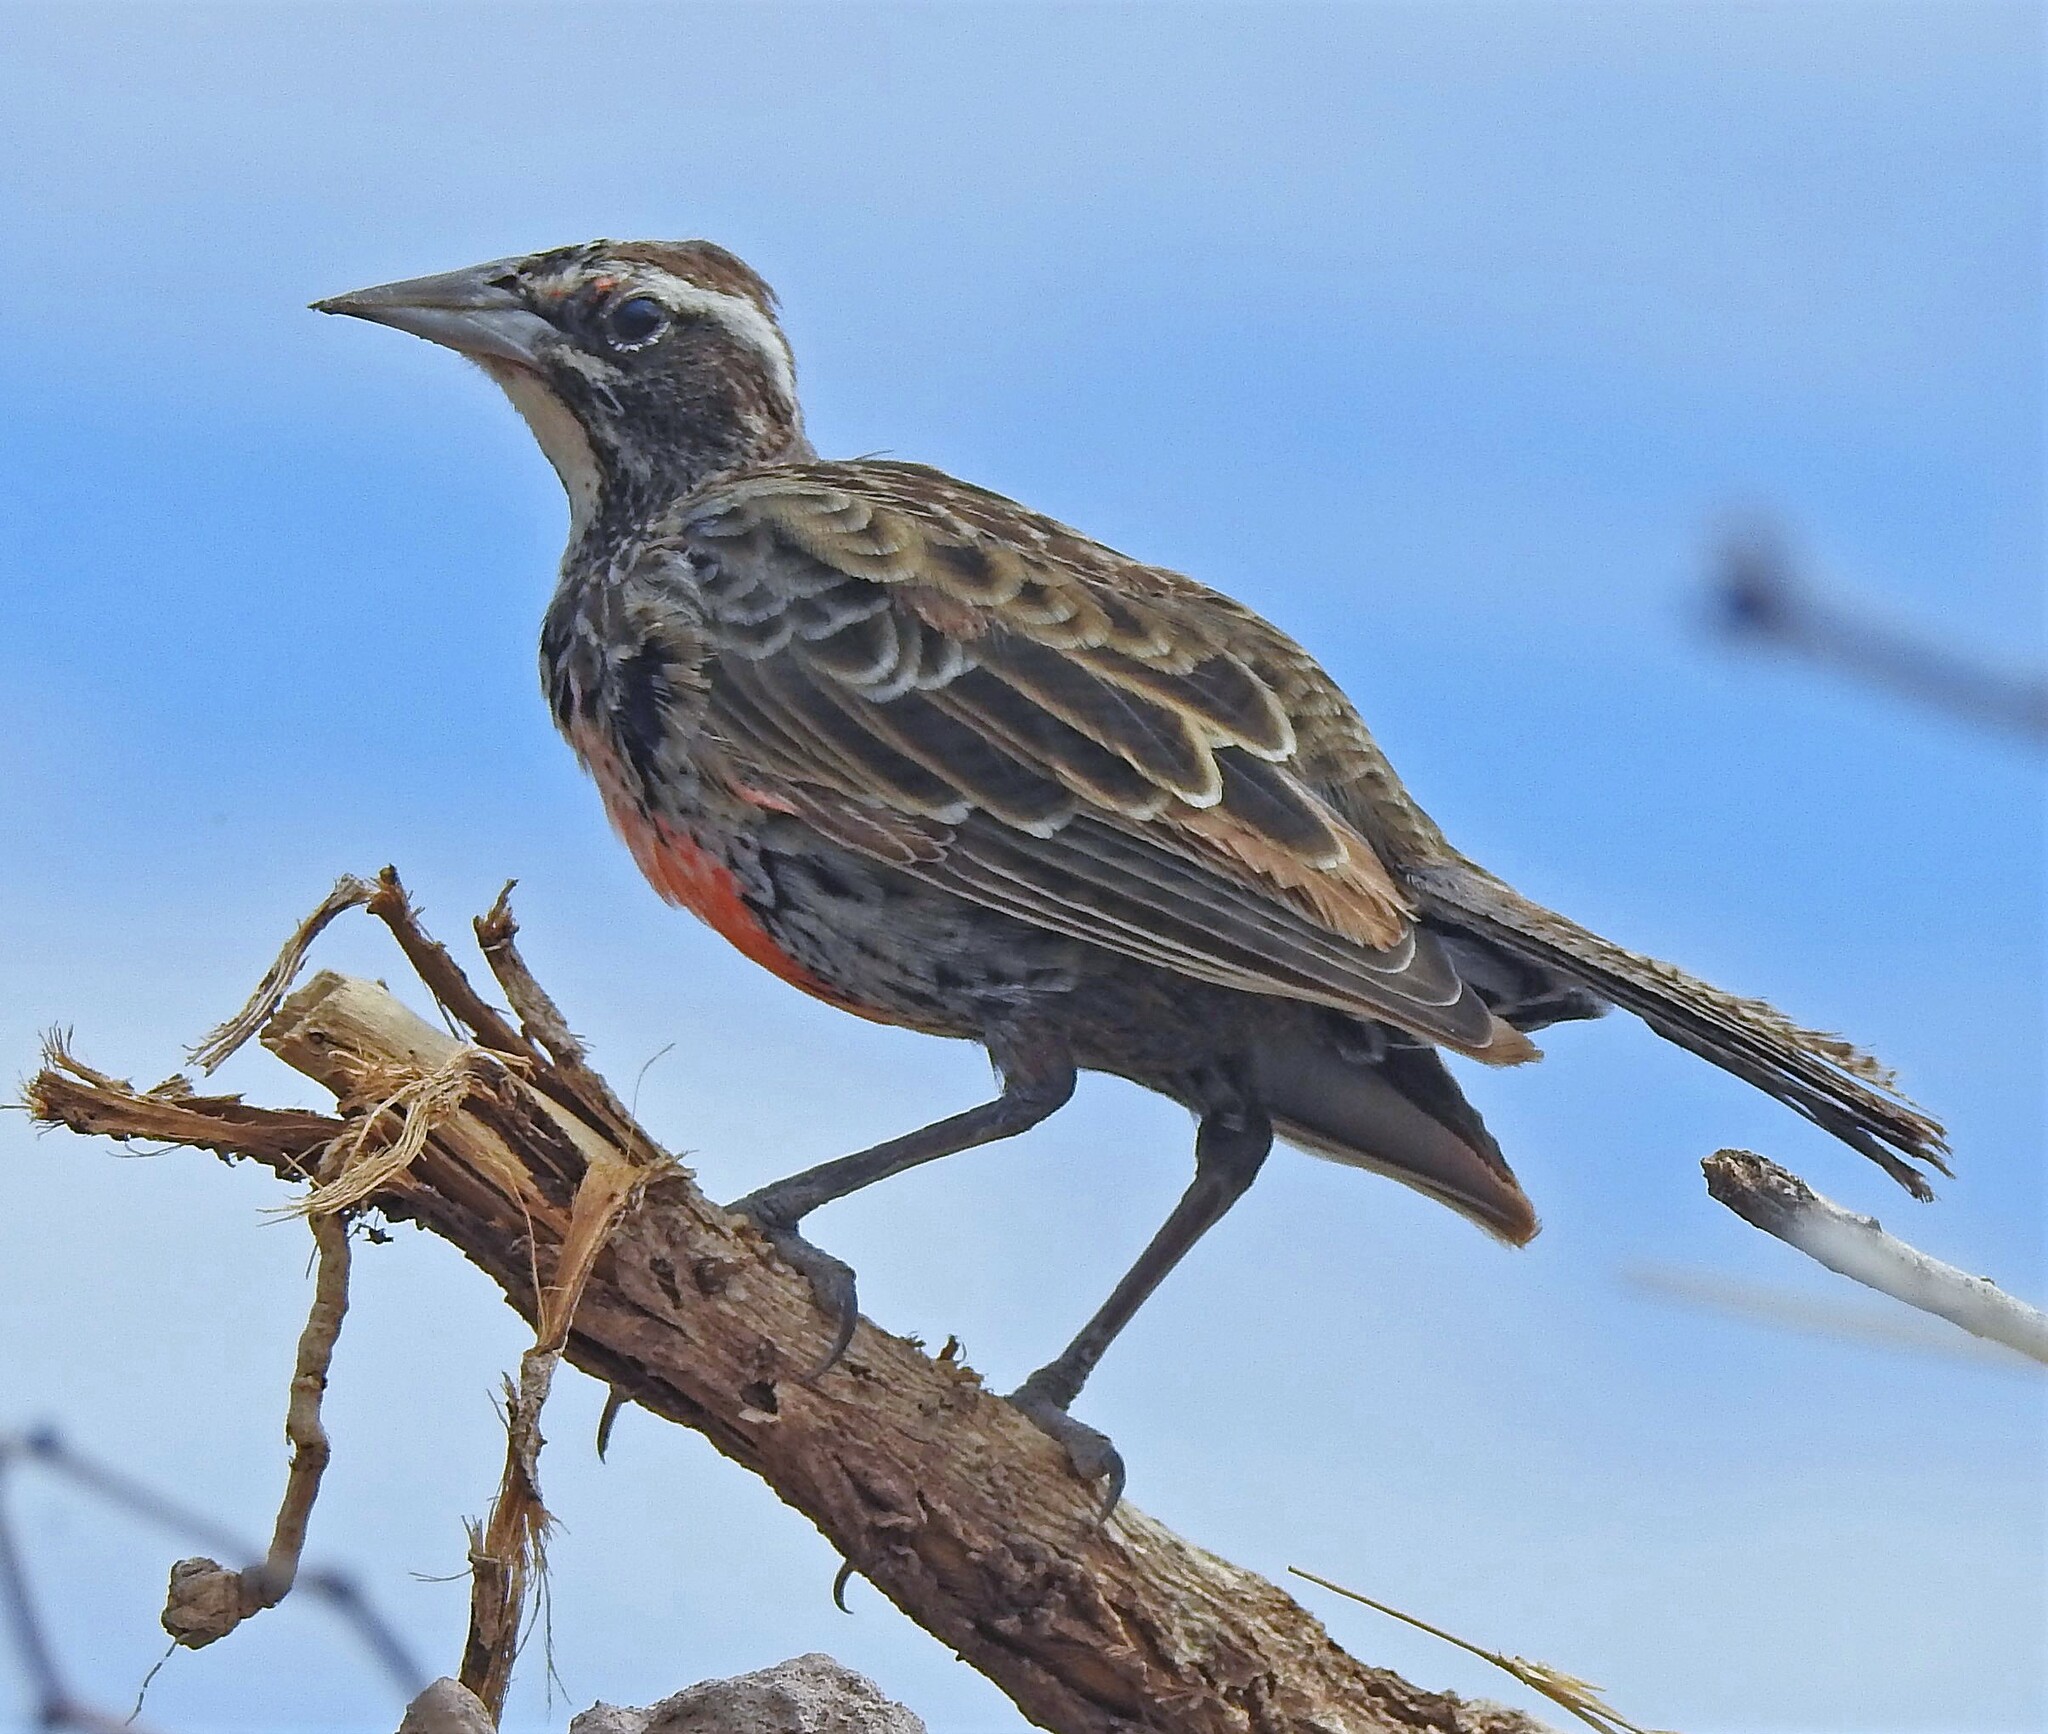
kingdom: Animalia
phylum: Chordata
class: Aves
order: Passeriformes
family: Icteridae
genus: Sturnella
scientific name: Sturnella loyca
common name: Long-tailed meadowlark
